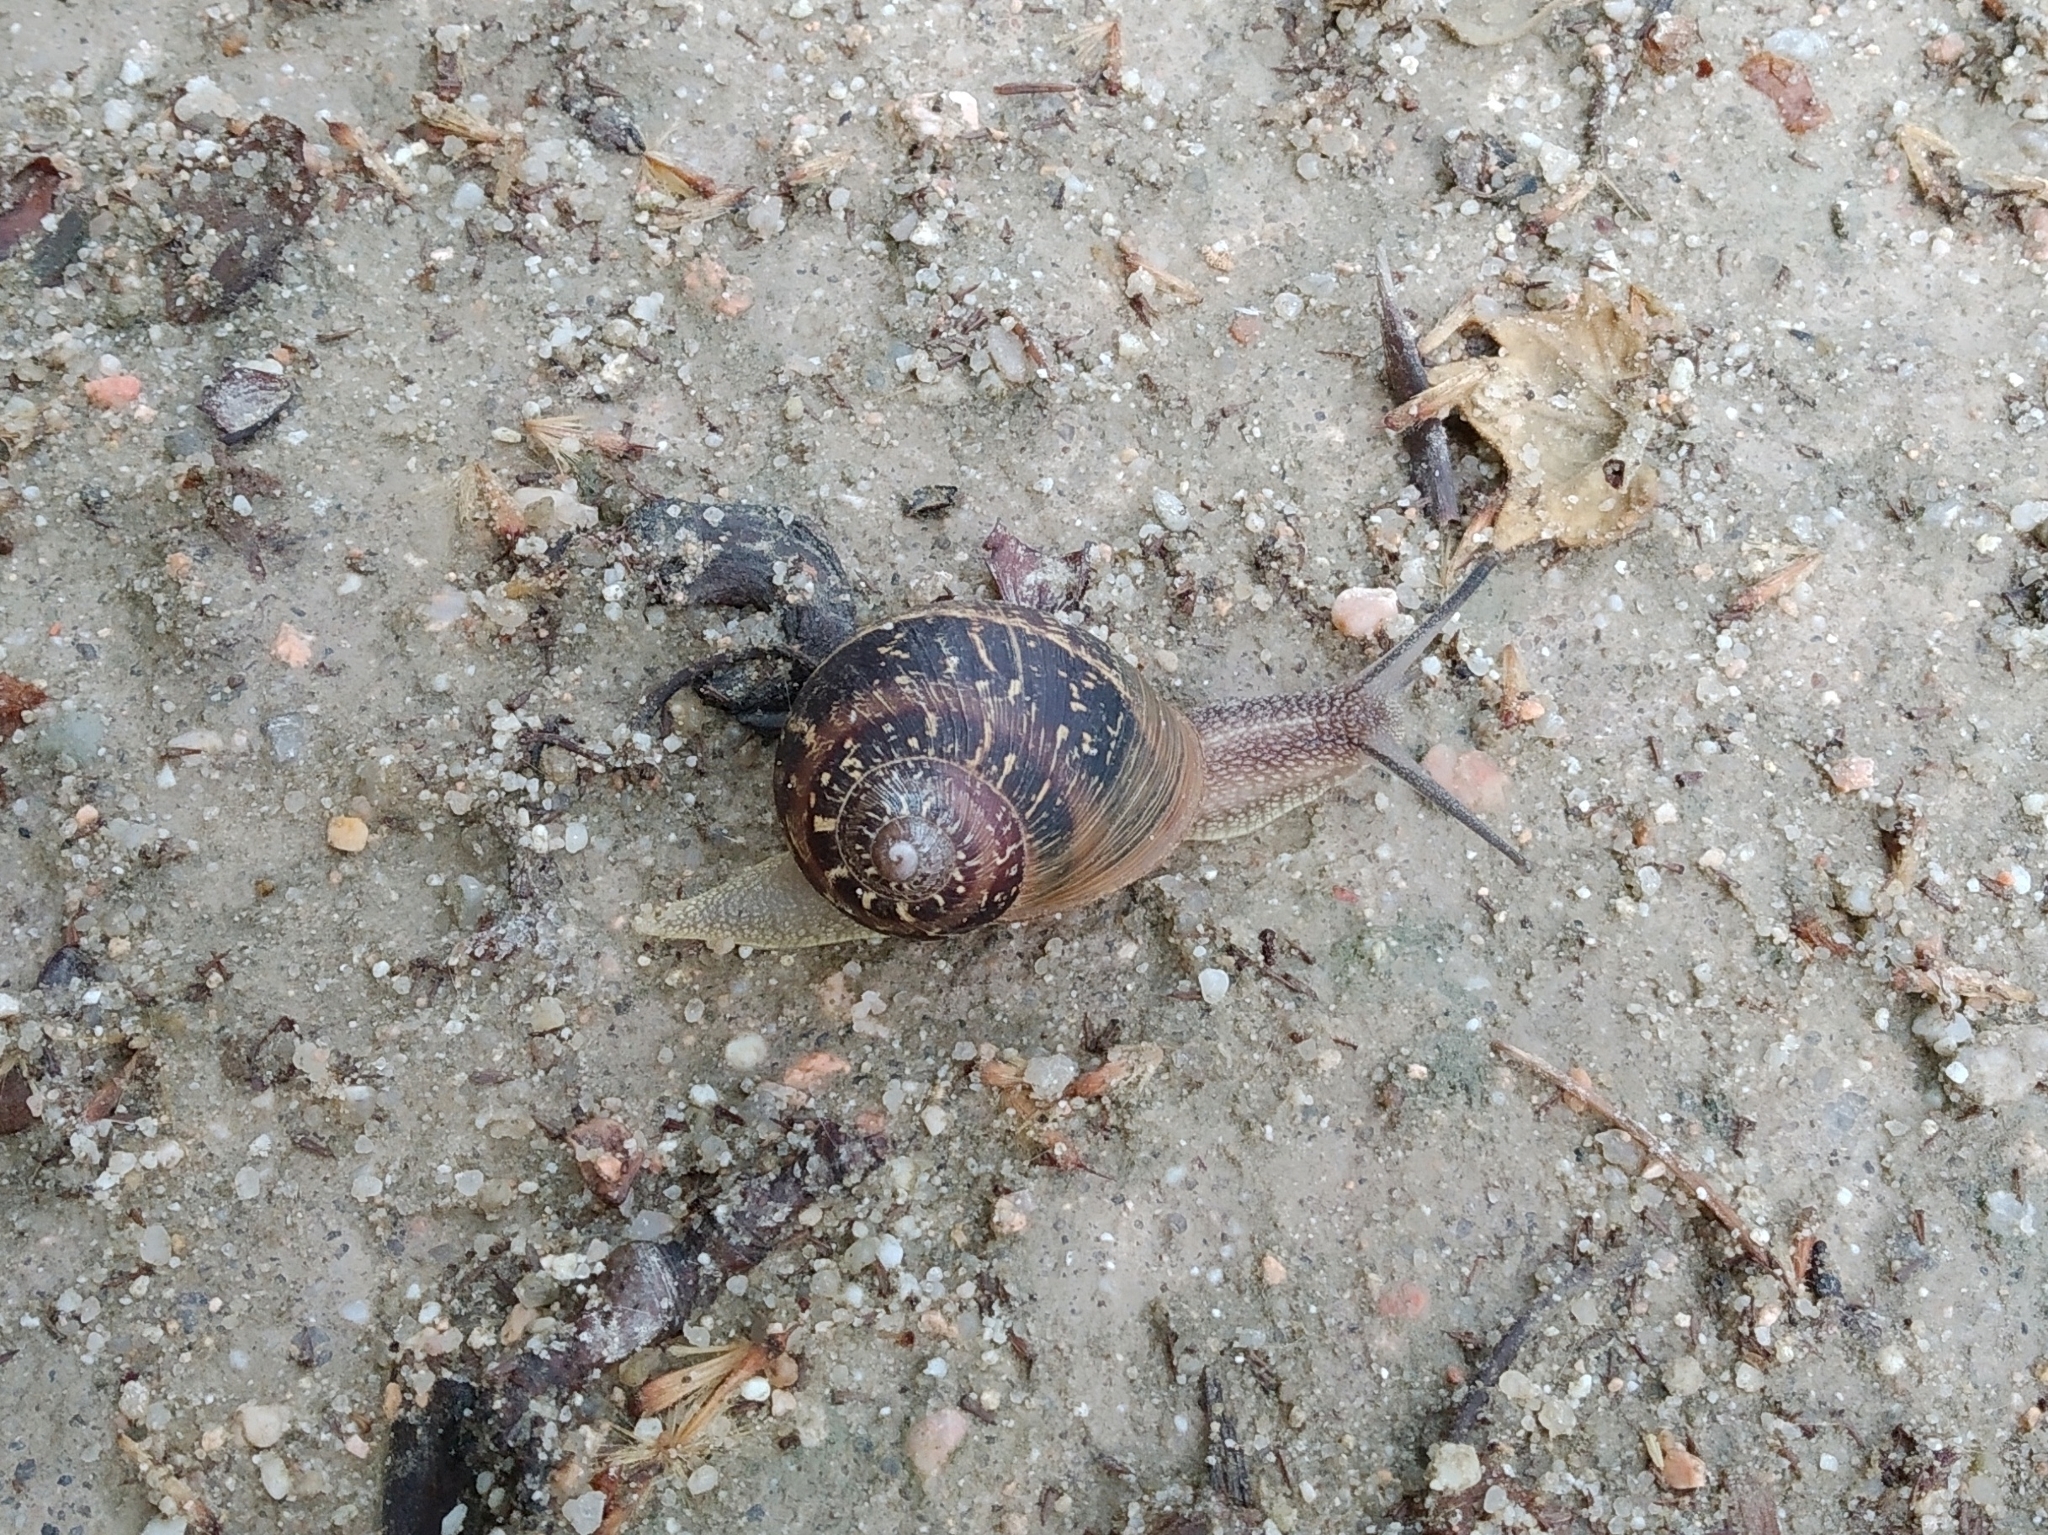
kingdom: Animalia
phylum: Mollusca
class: Gastropoda
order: Stylommatophora
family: Helicidae
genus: Cornu
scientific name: Cornu aspersum
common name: Brown garden snail
